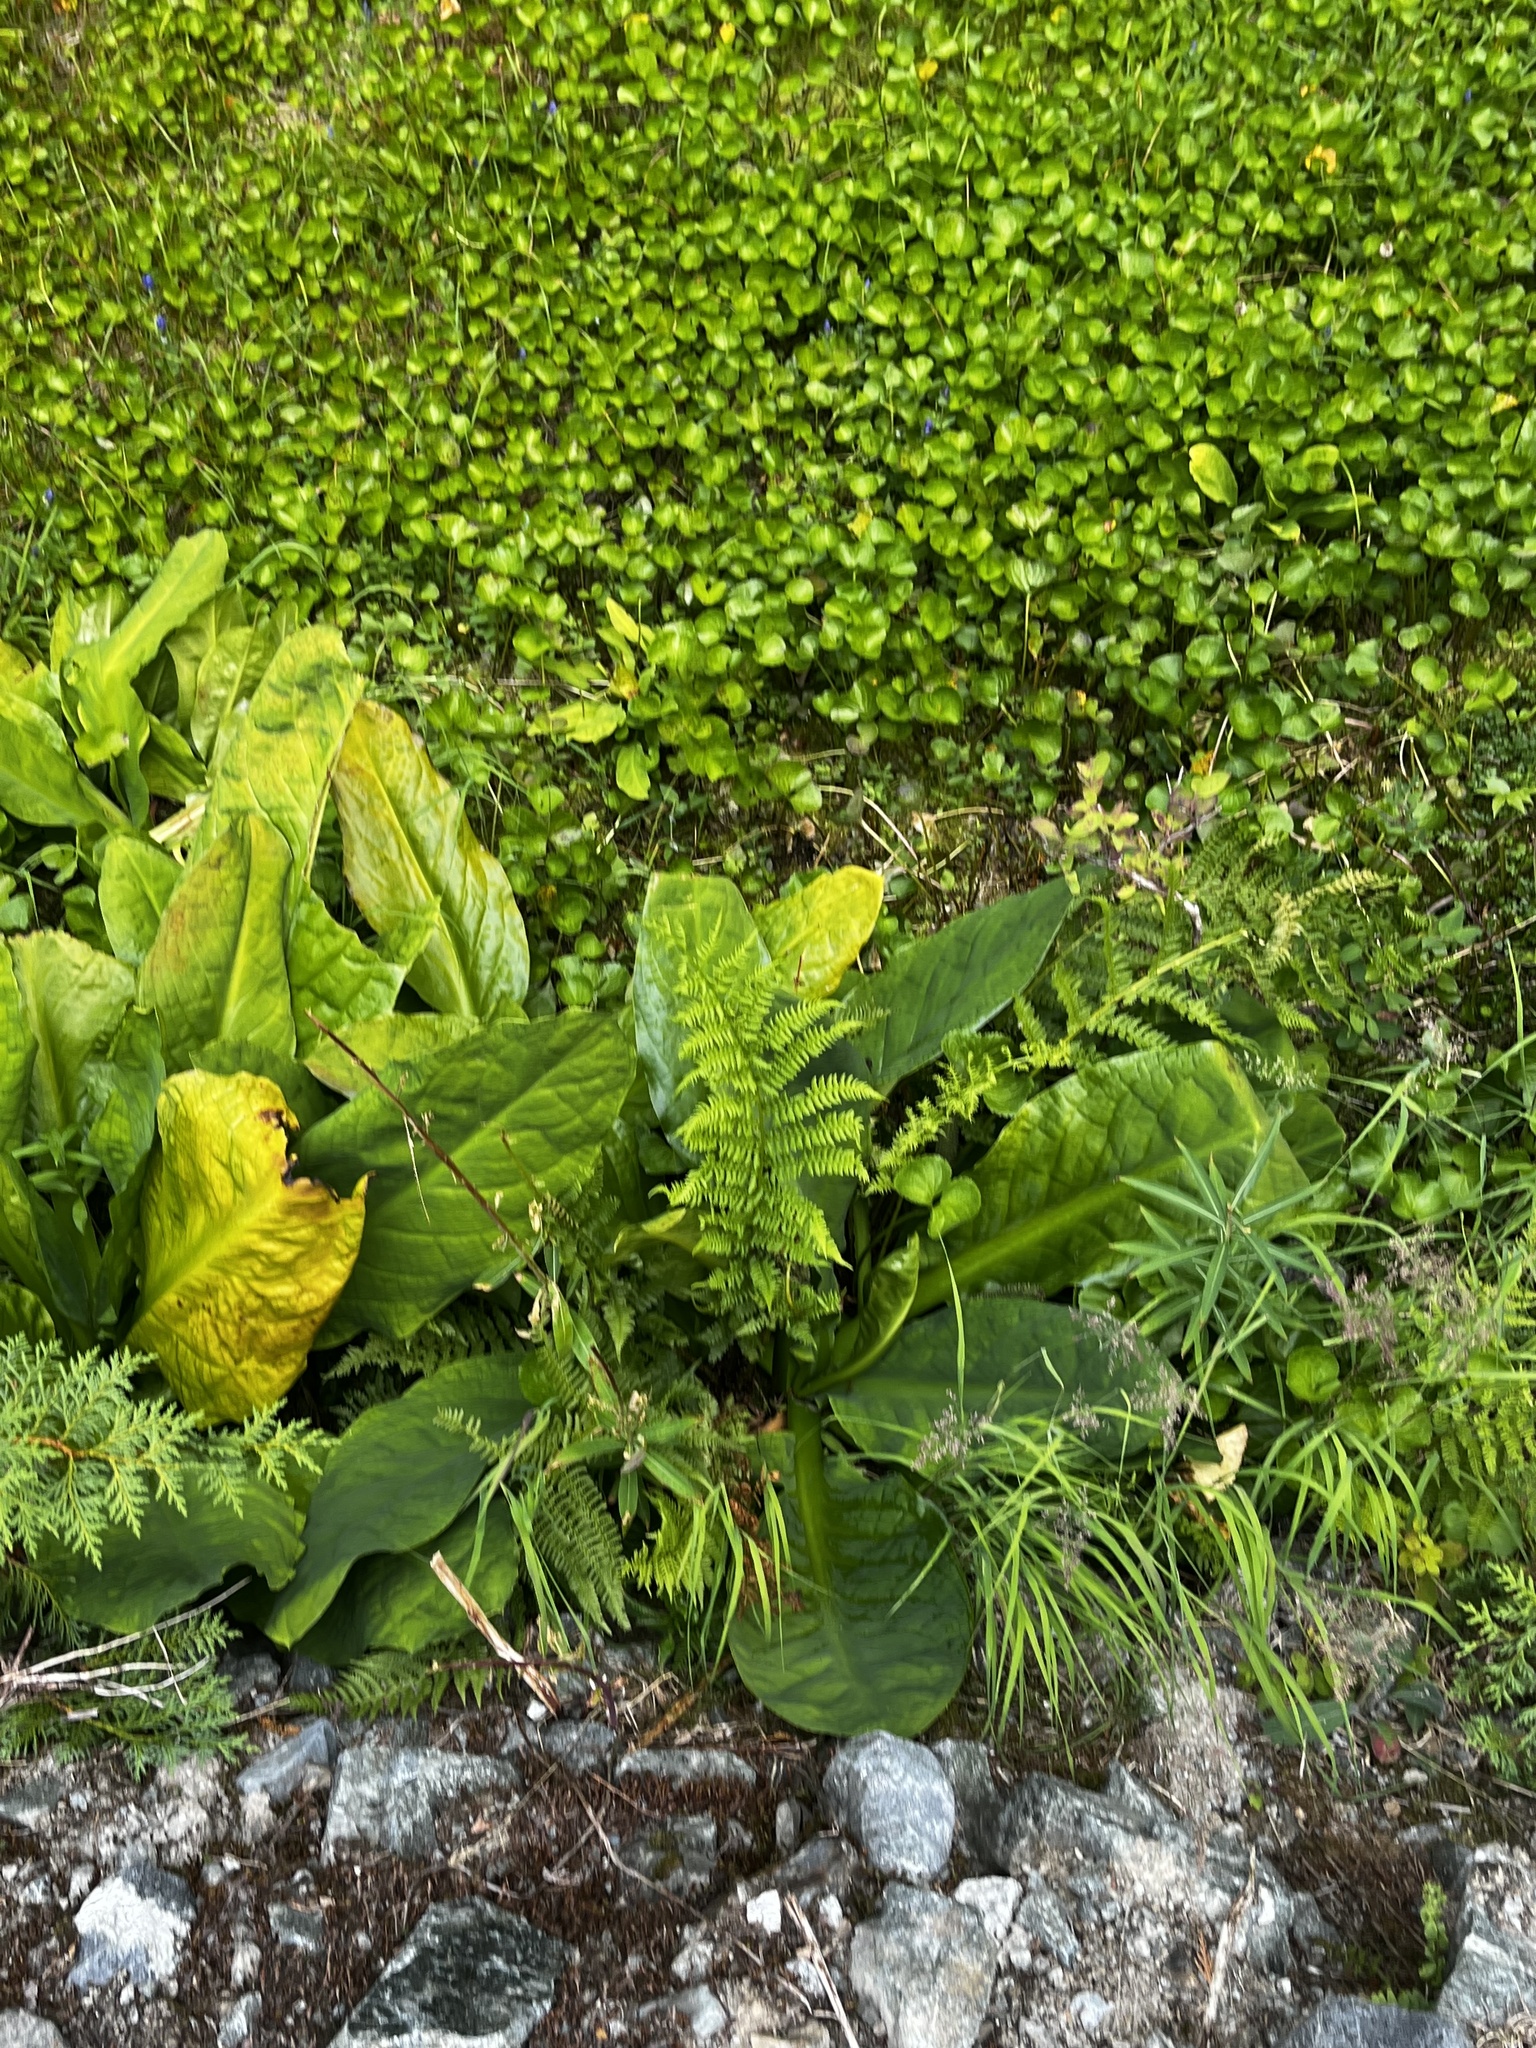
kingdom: Plantae
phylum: Tracheophyta
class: Liliopsida
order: Alismatales
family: Araceae
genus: Lysichiton
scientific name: Lysichiton americanus
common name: American skunk cabbage
